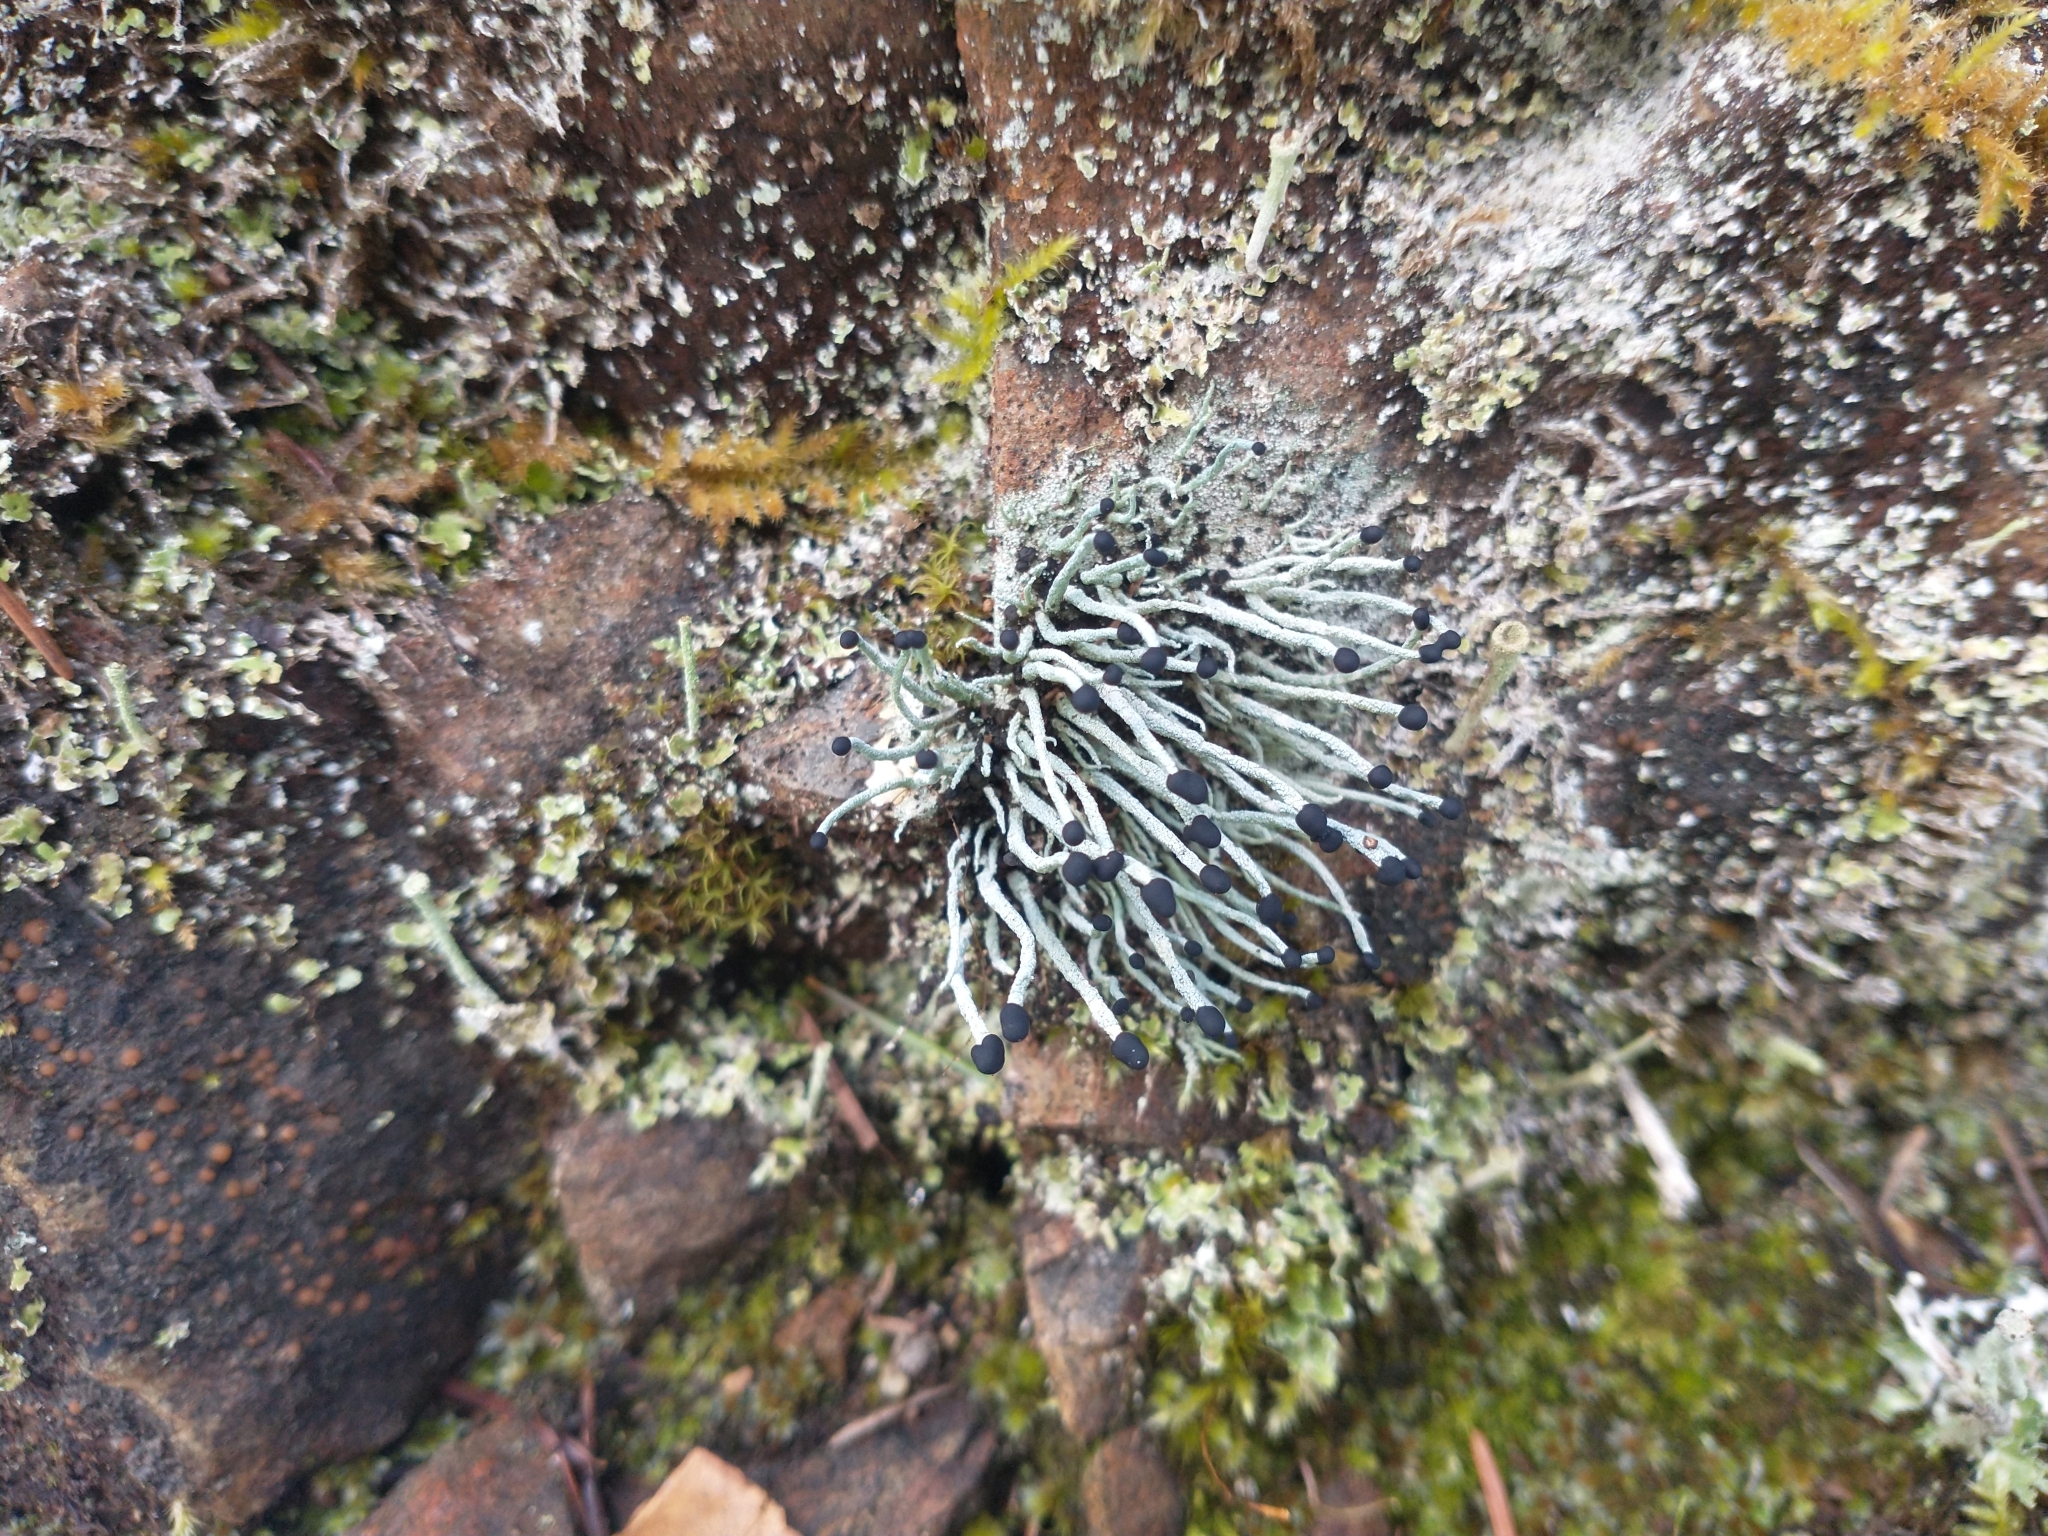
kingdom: Fungi
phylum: Ascomycota
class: Lecanoromycetes
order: Lecanorales
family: Cladoniaceae
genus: Pilophorus
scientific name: Pilophorus acicularis
